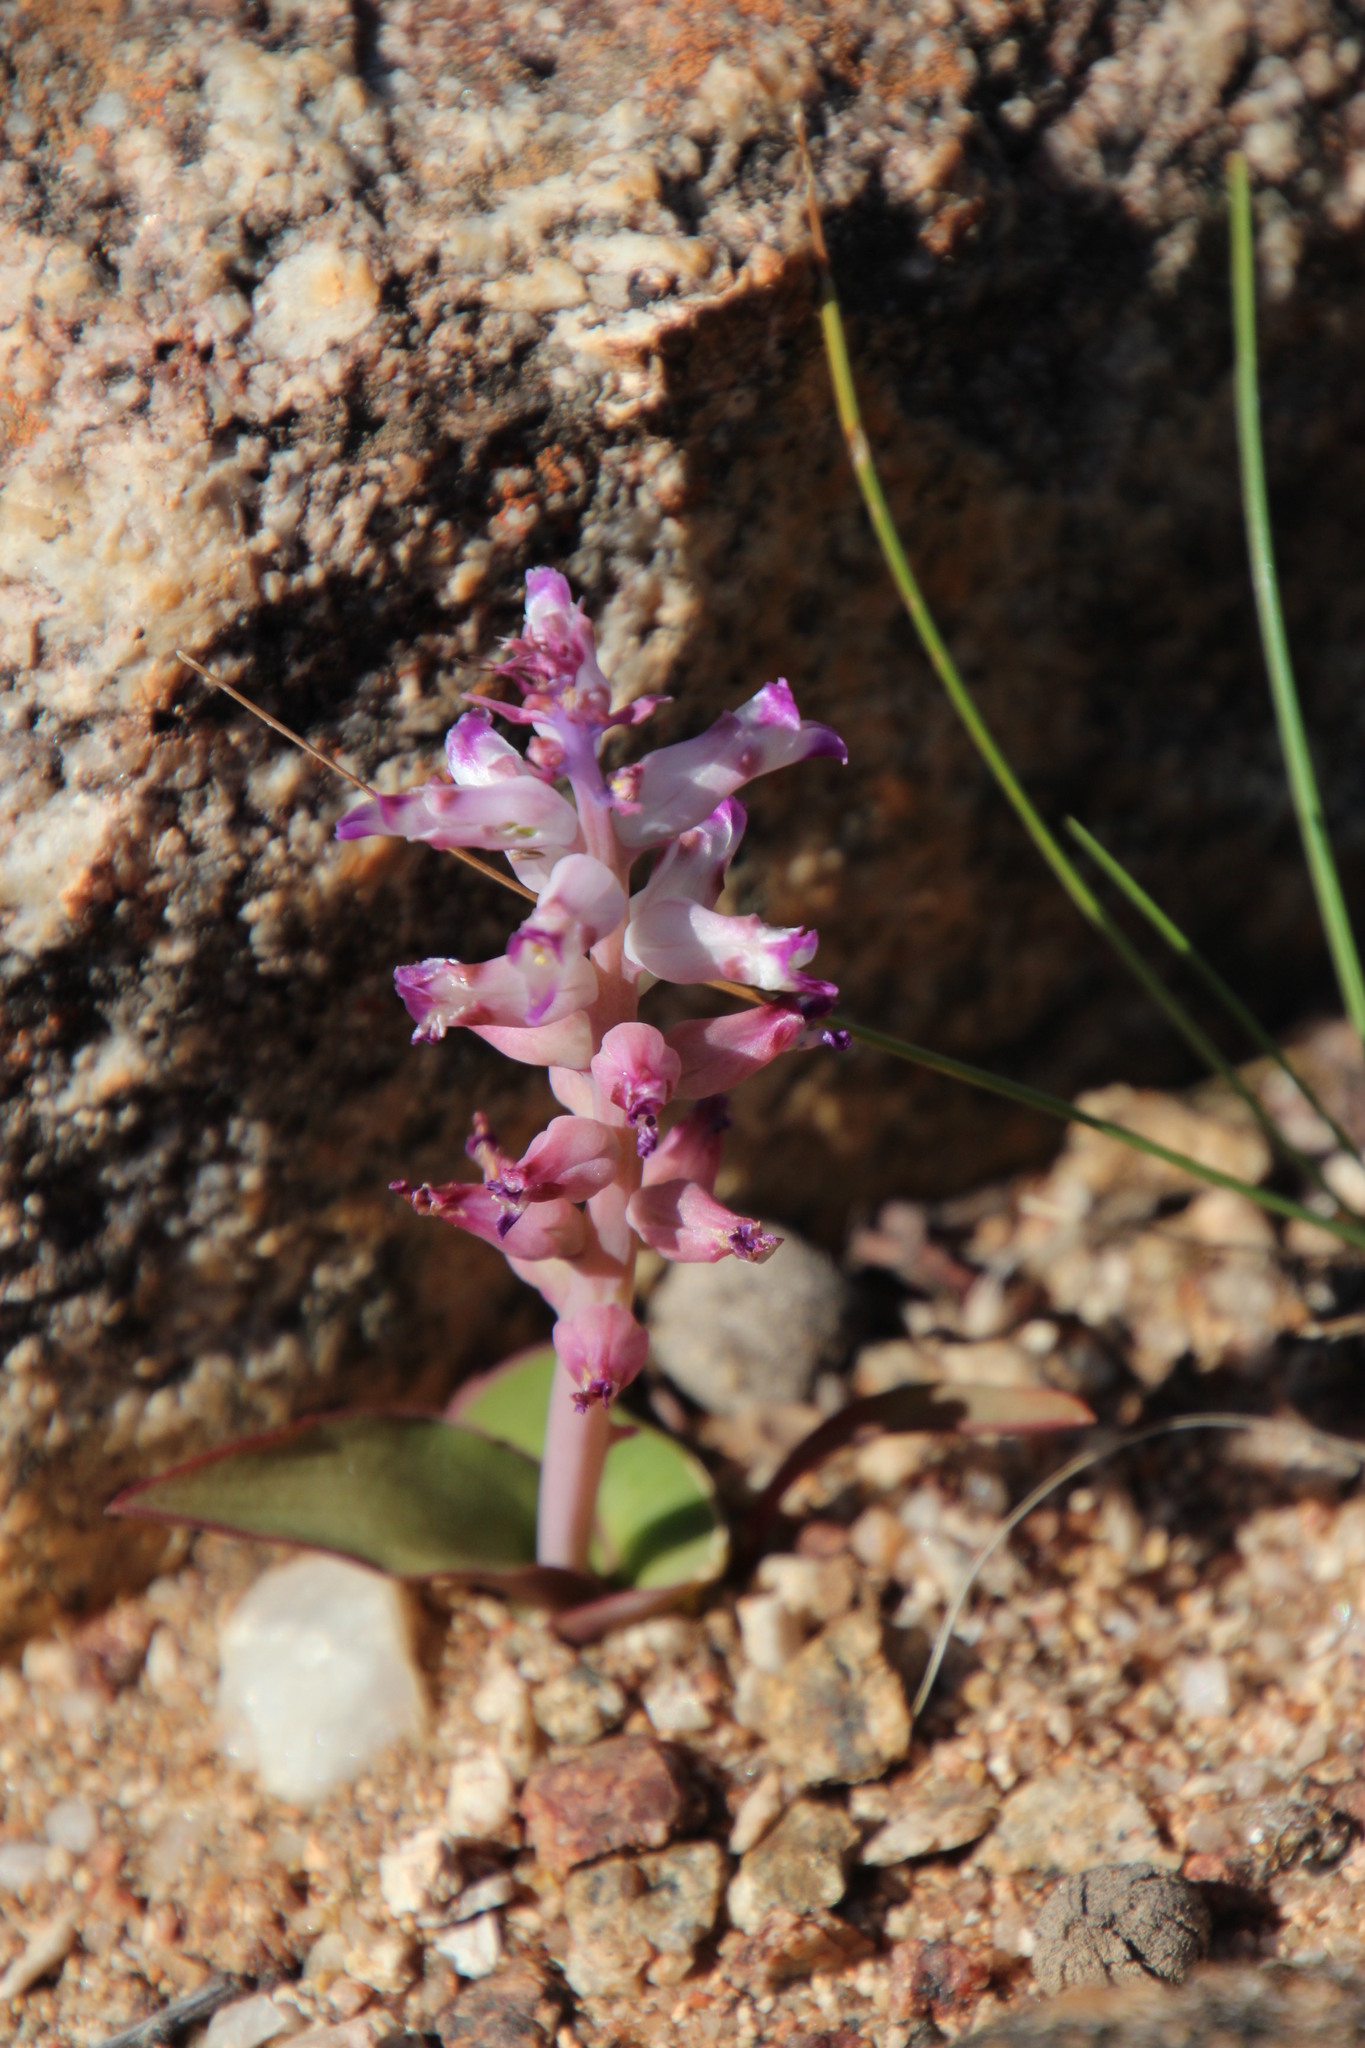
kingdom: Plantae
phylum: Tracheophyta
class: Liliopsida
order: Asparagales
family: Asparagaceae
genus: Lachenalia
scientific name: Lachenalia carnosa
